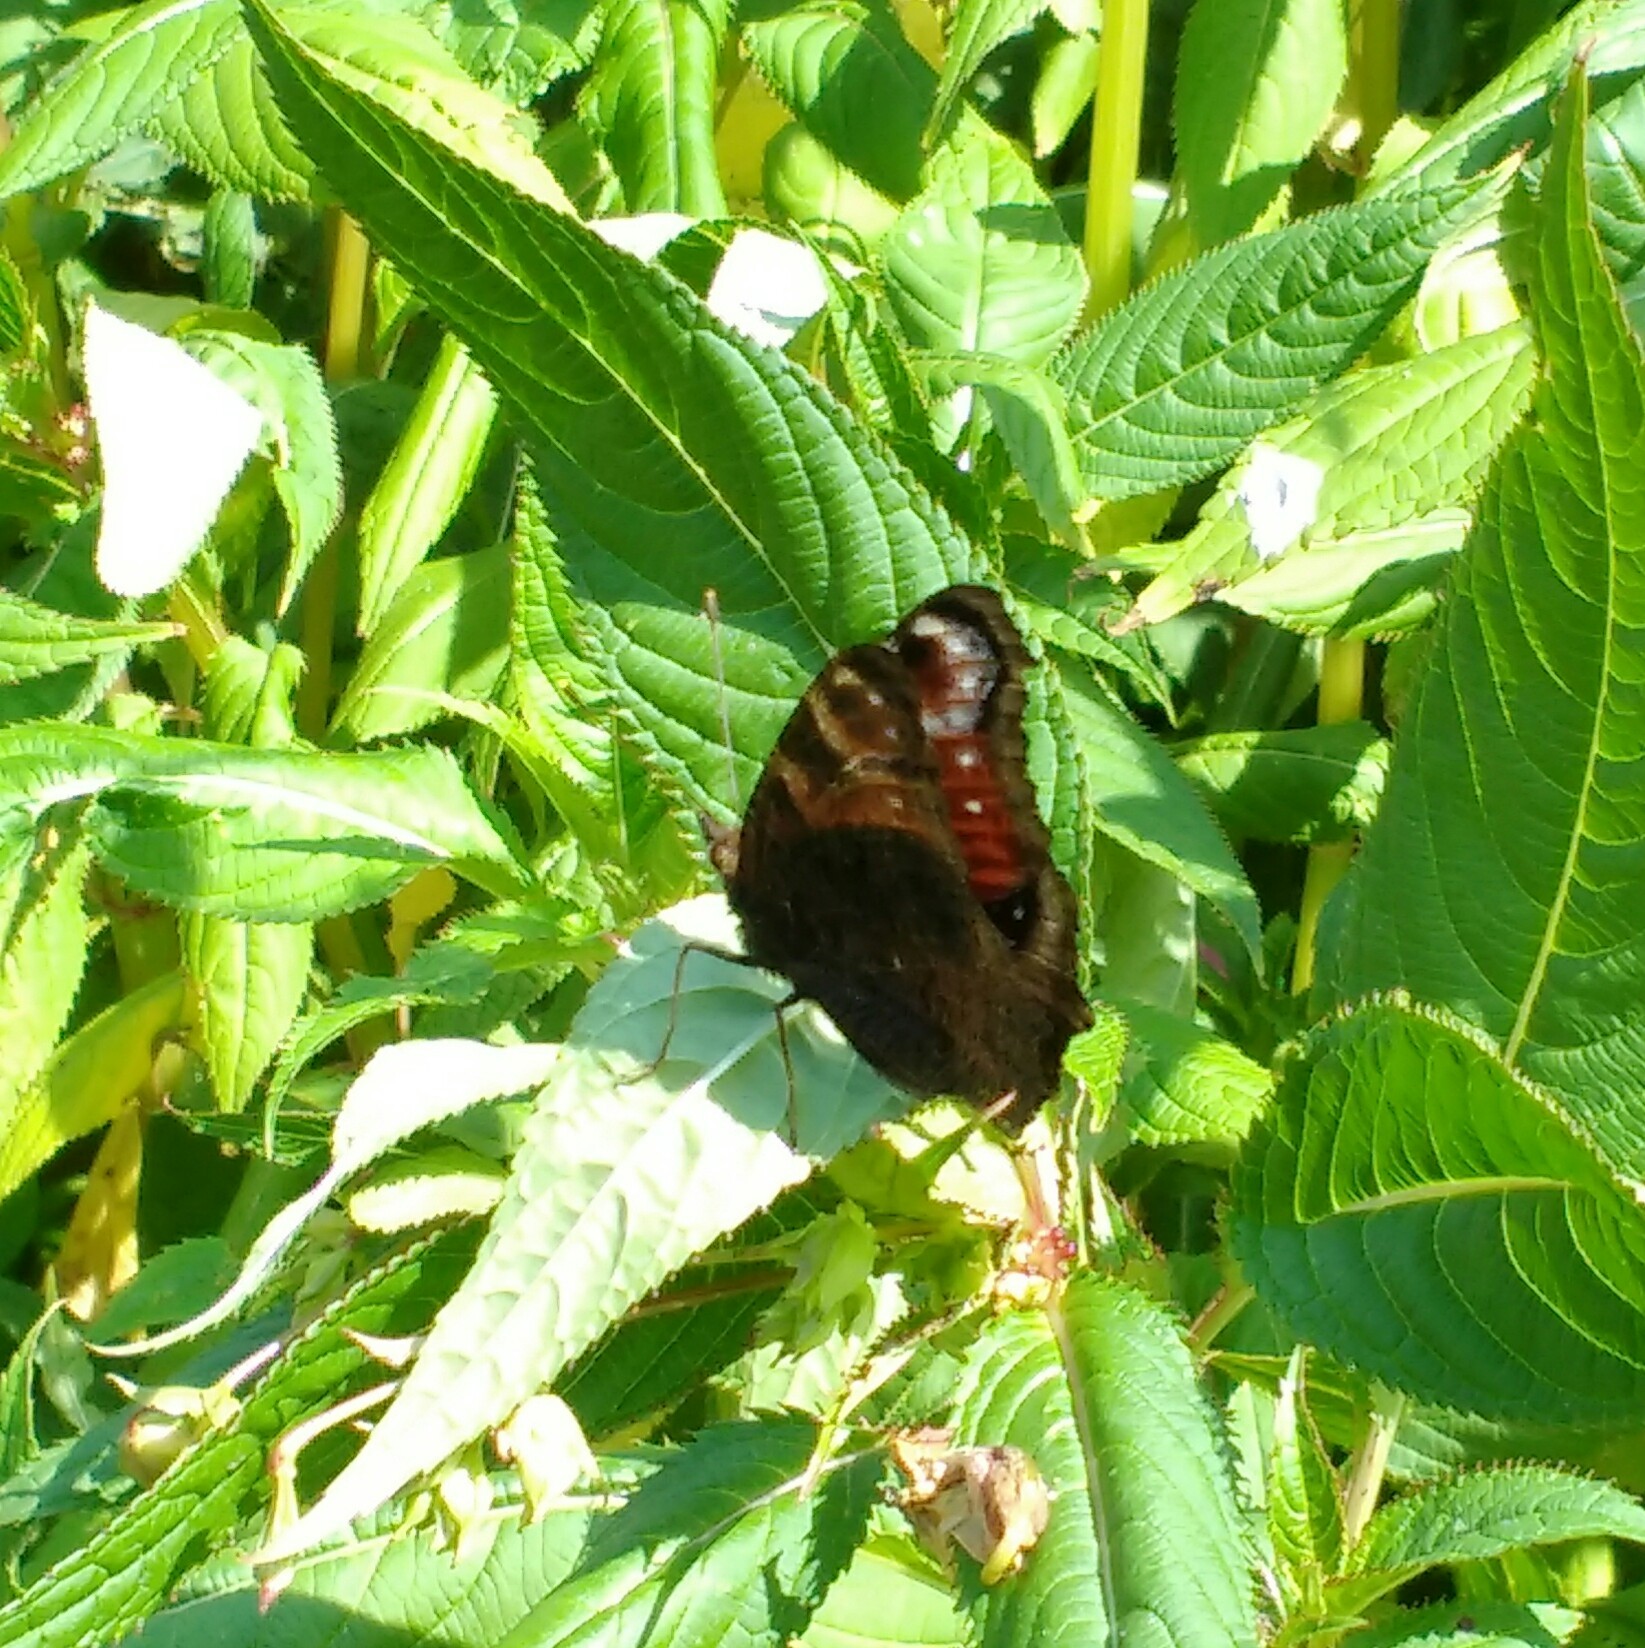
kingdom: Animalia
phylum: Arthropoda
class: Insecta
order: Lepidoptera
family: Nymphalidae
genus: Aglais
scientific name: Aglais io
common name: Peacock
